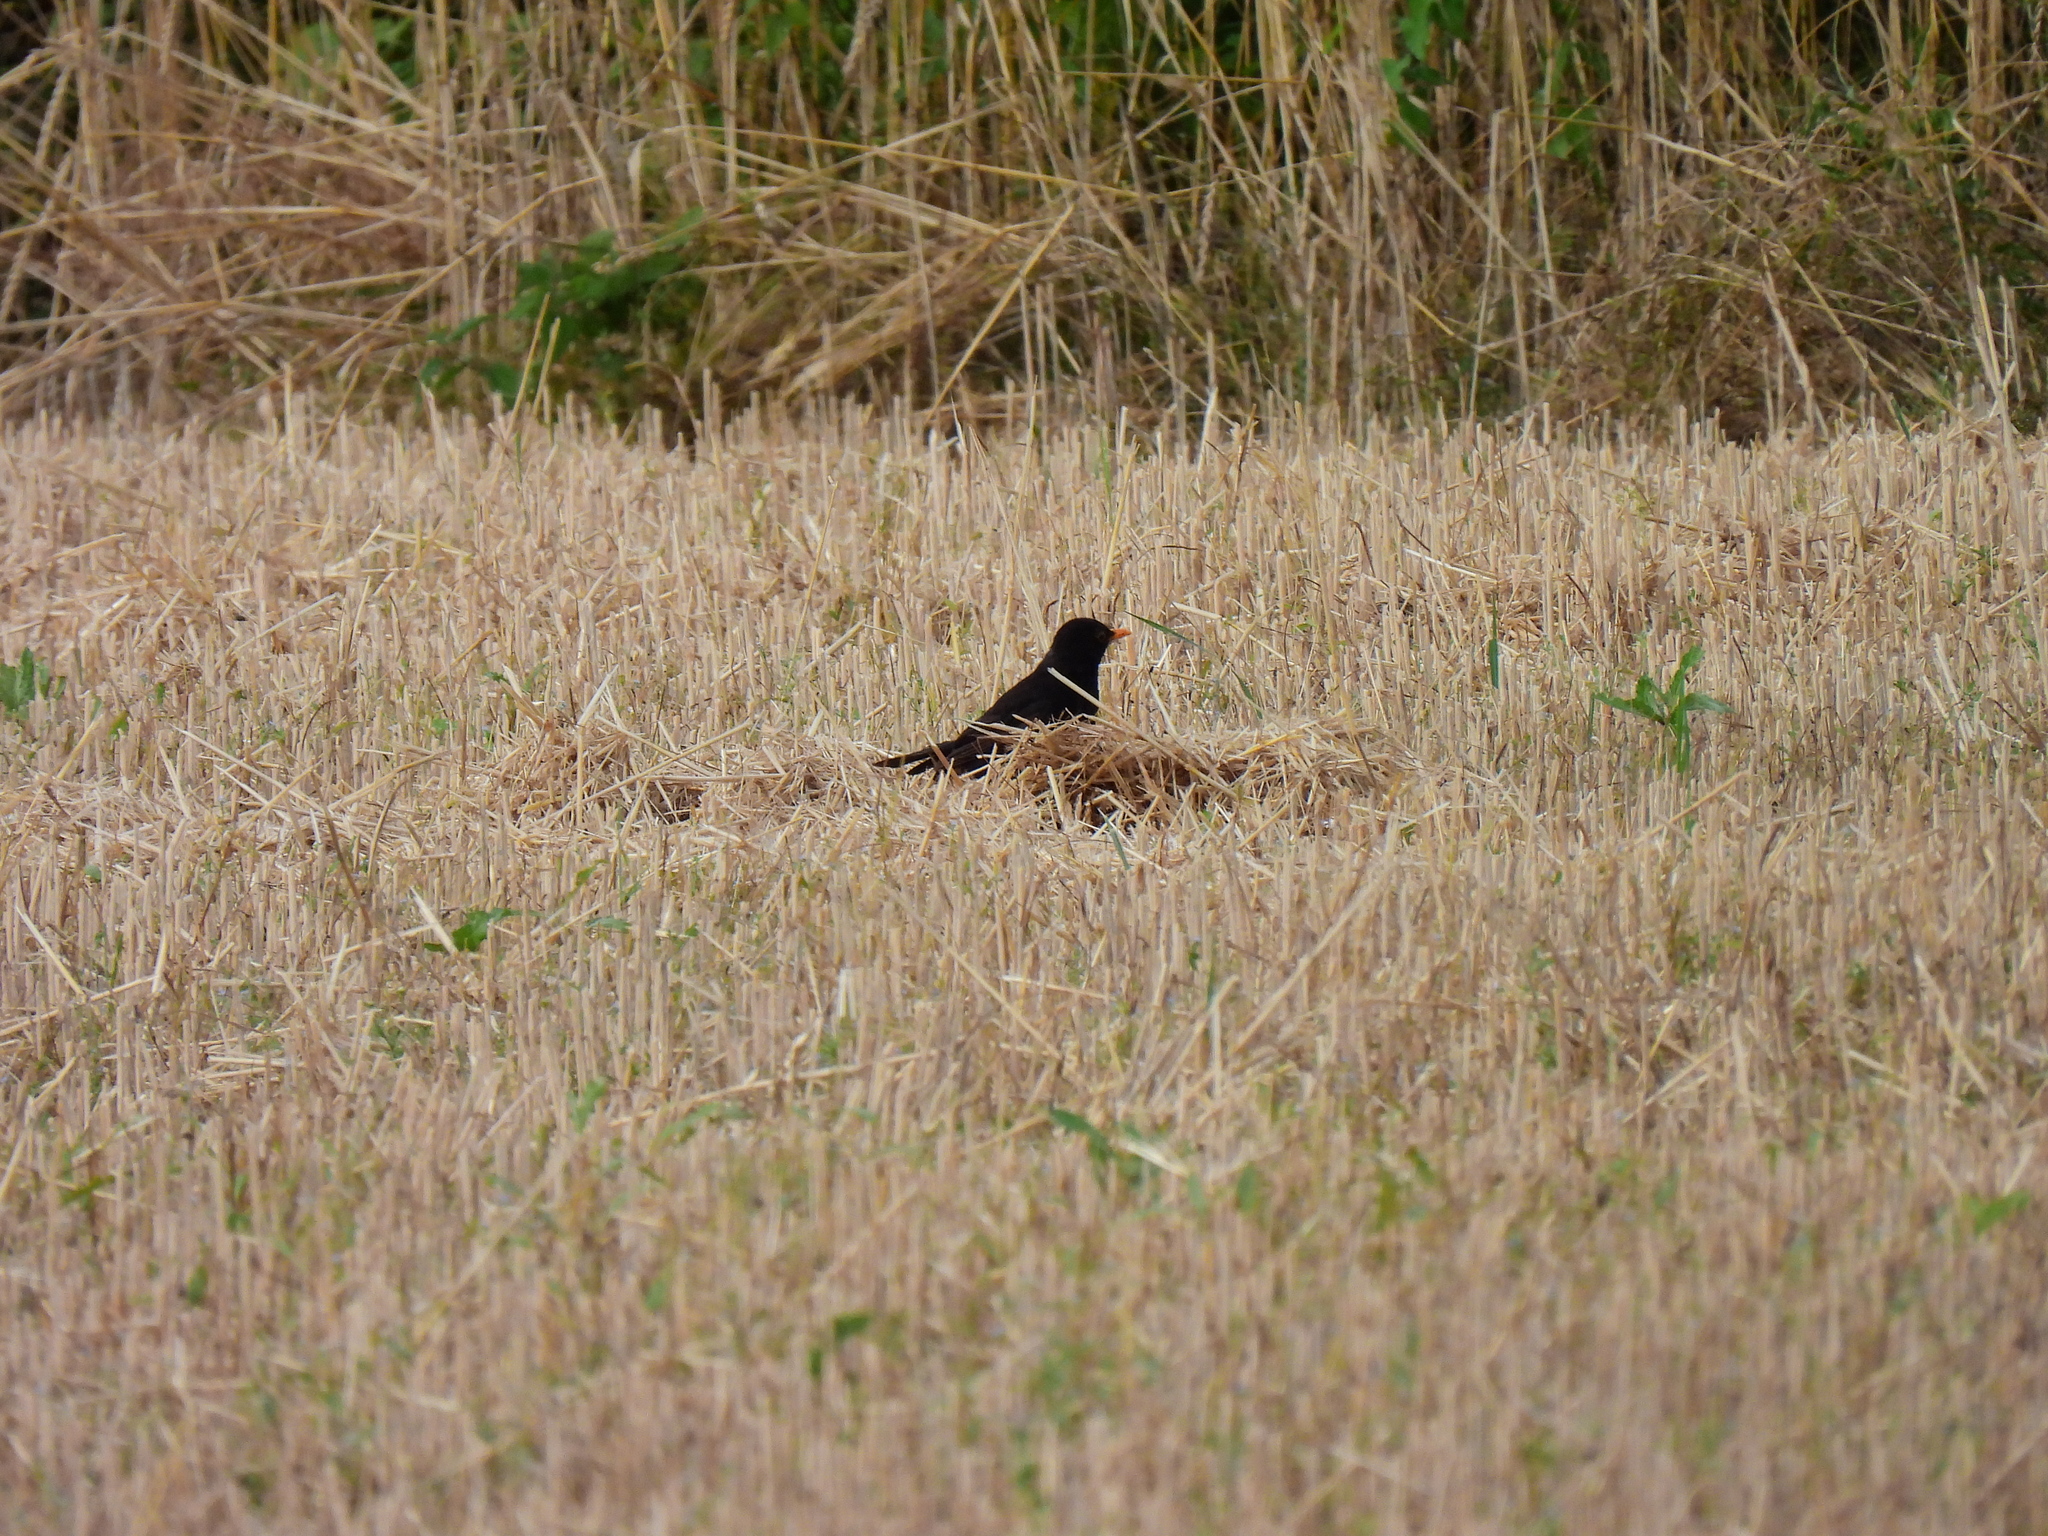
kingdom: Animalia
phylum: Chordata
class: Aves
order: Passeriformes
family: Turdidae
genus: Turdus
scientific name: Turdus merula
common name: Common blackbird
